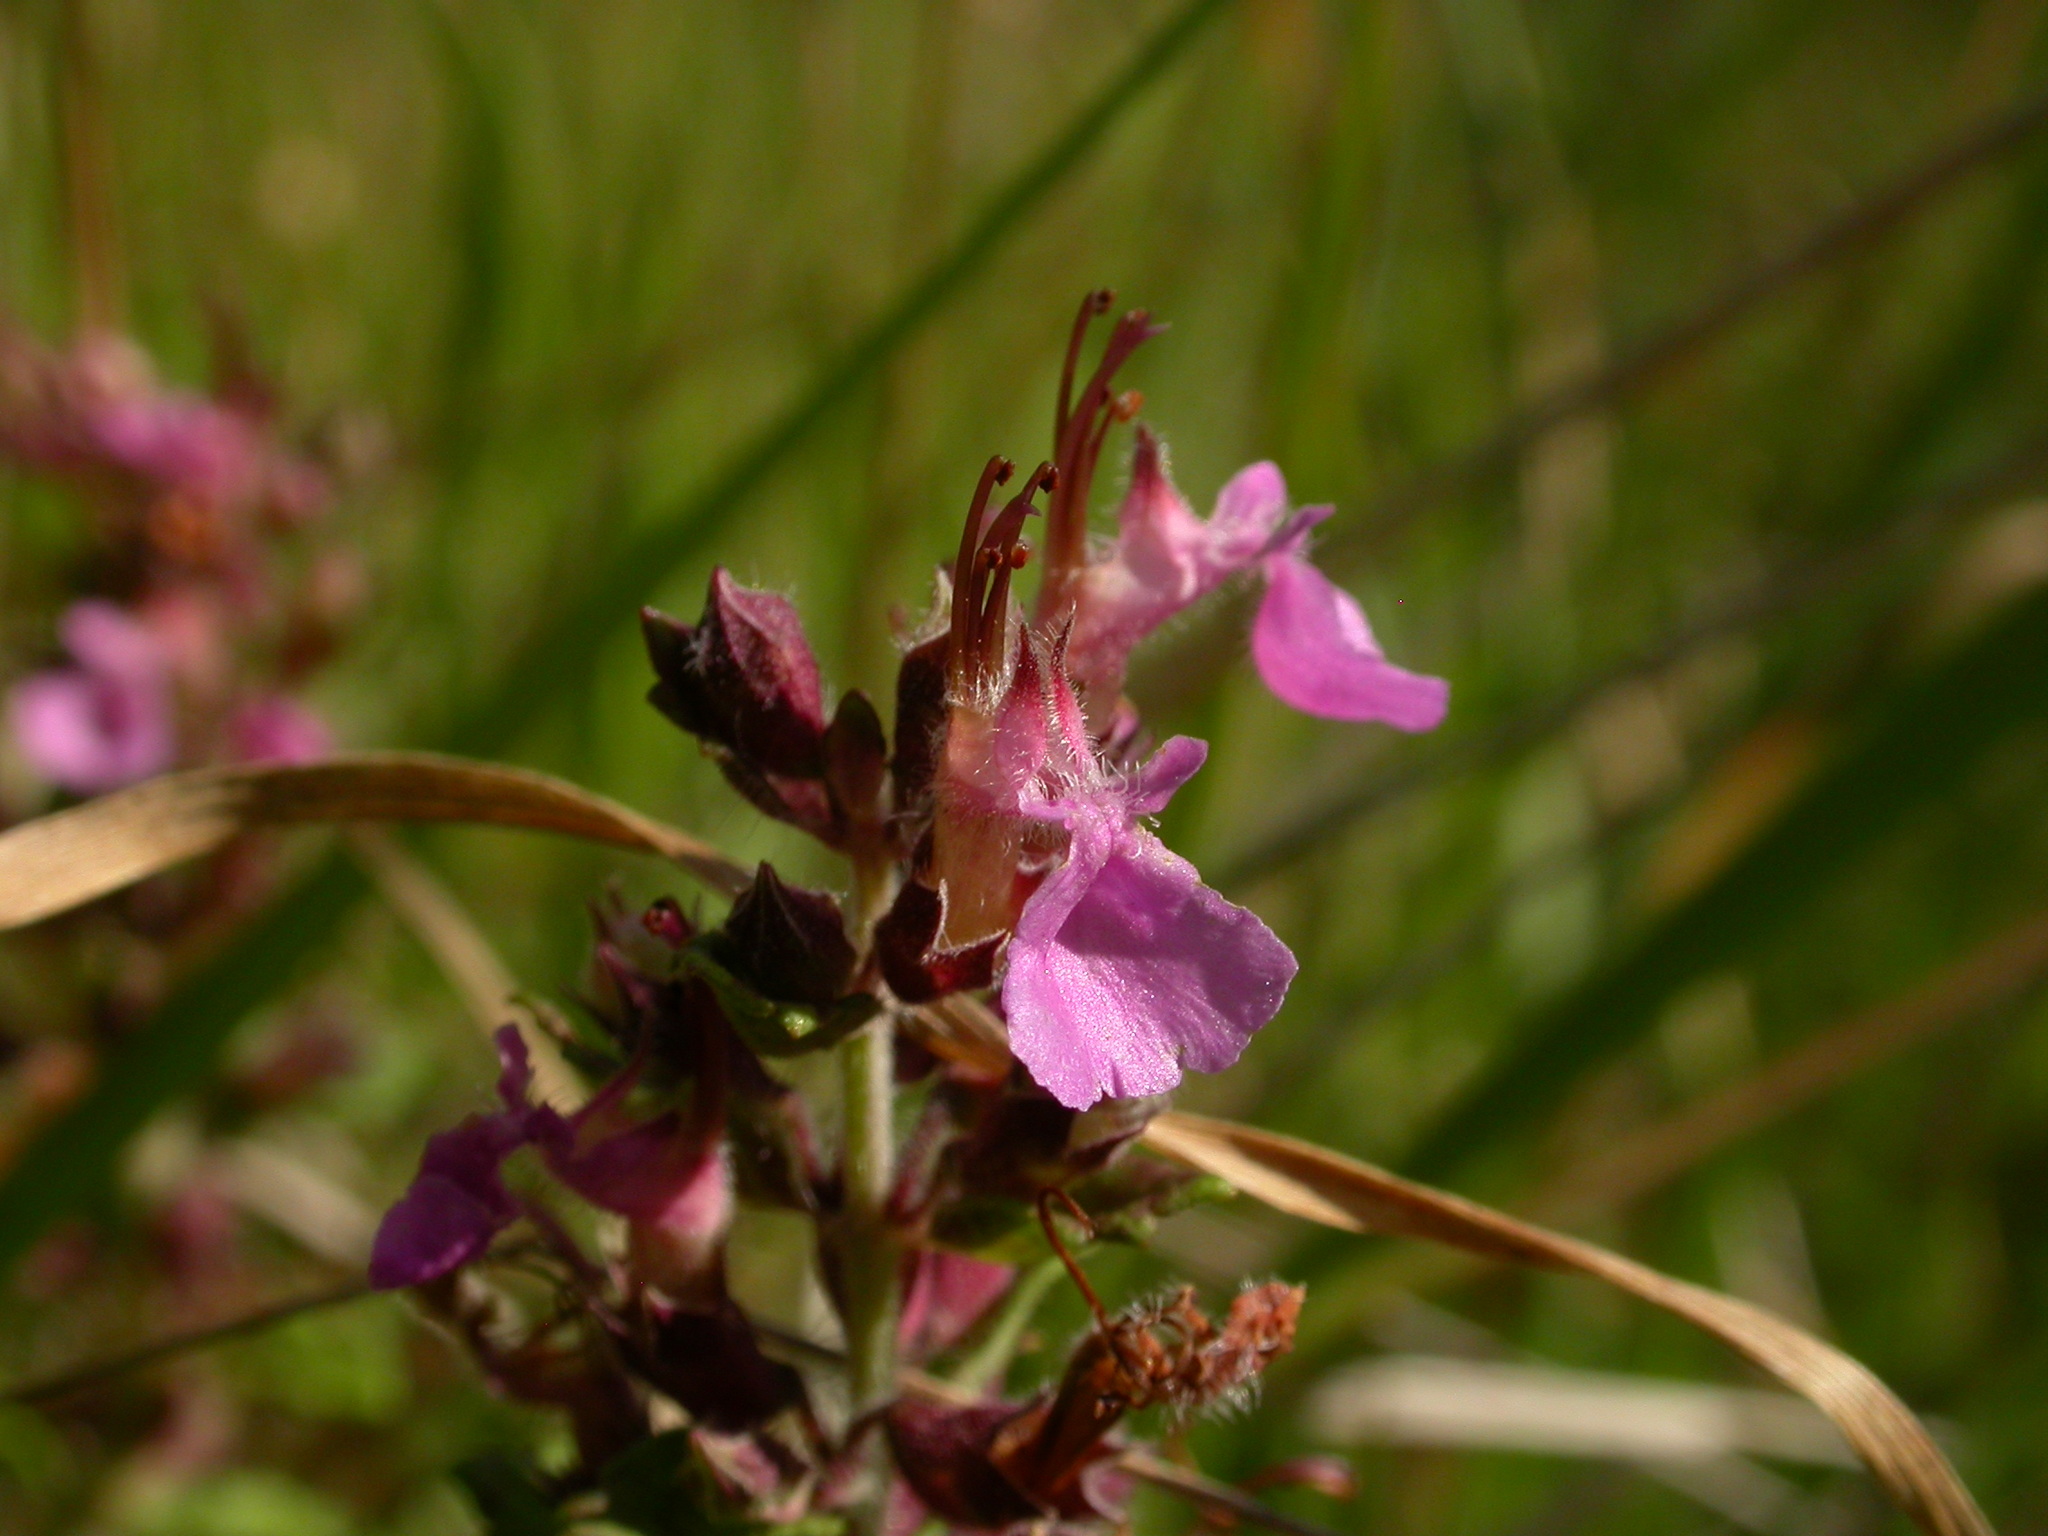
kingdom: Plantae
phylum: Tracheophyta
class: Magnoliopsida
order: Lamiales
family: Lamiaceae
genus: Teucrium
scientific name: Teucrium chamaedrys
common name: Wall germander
